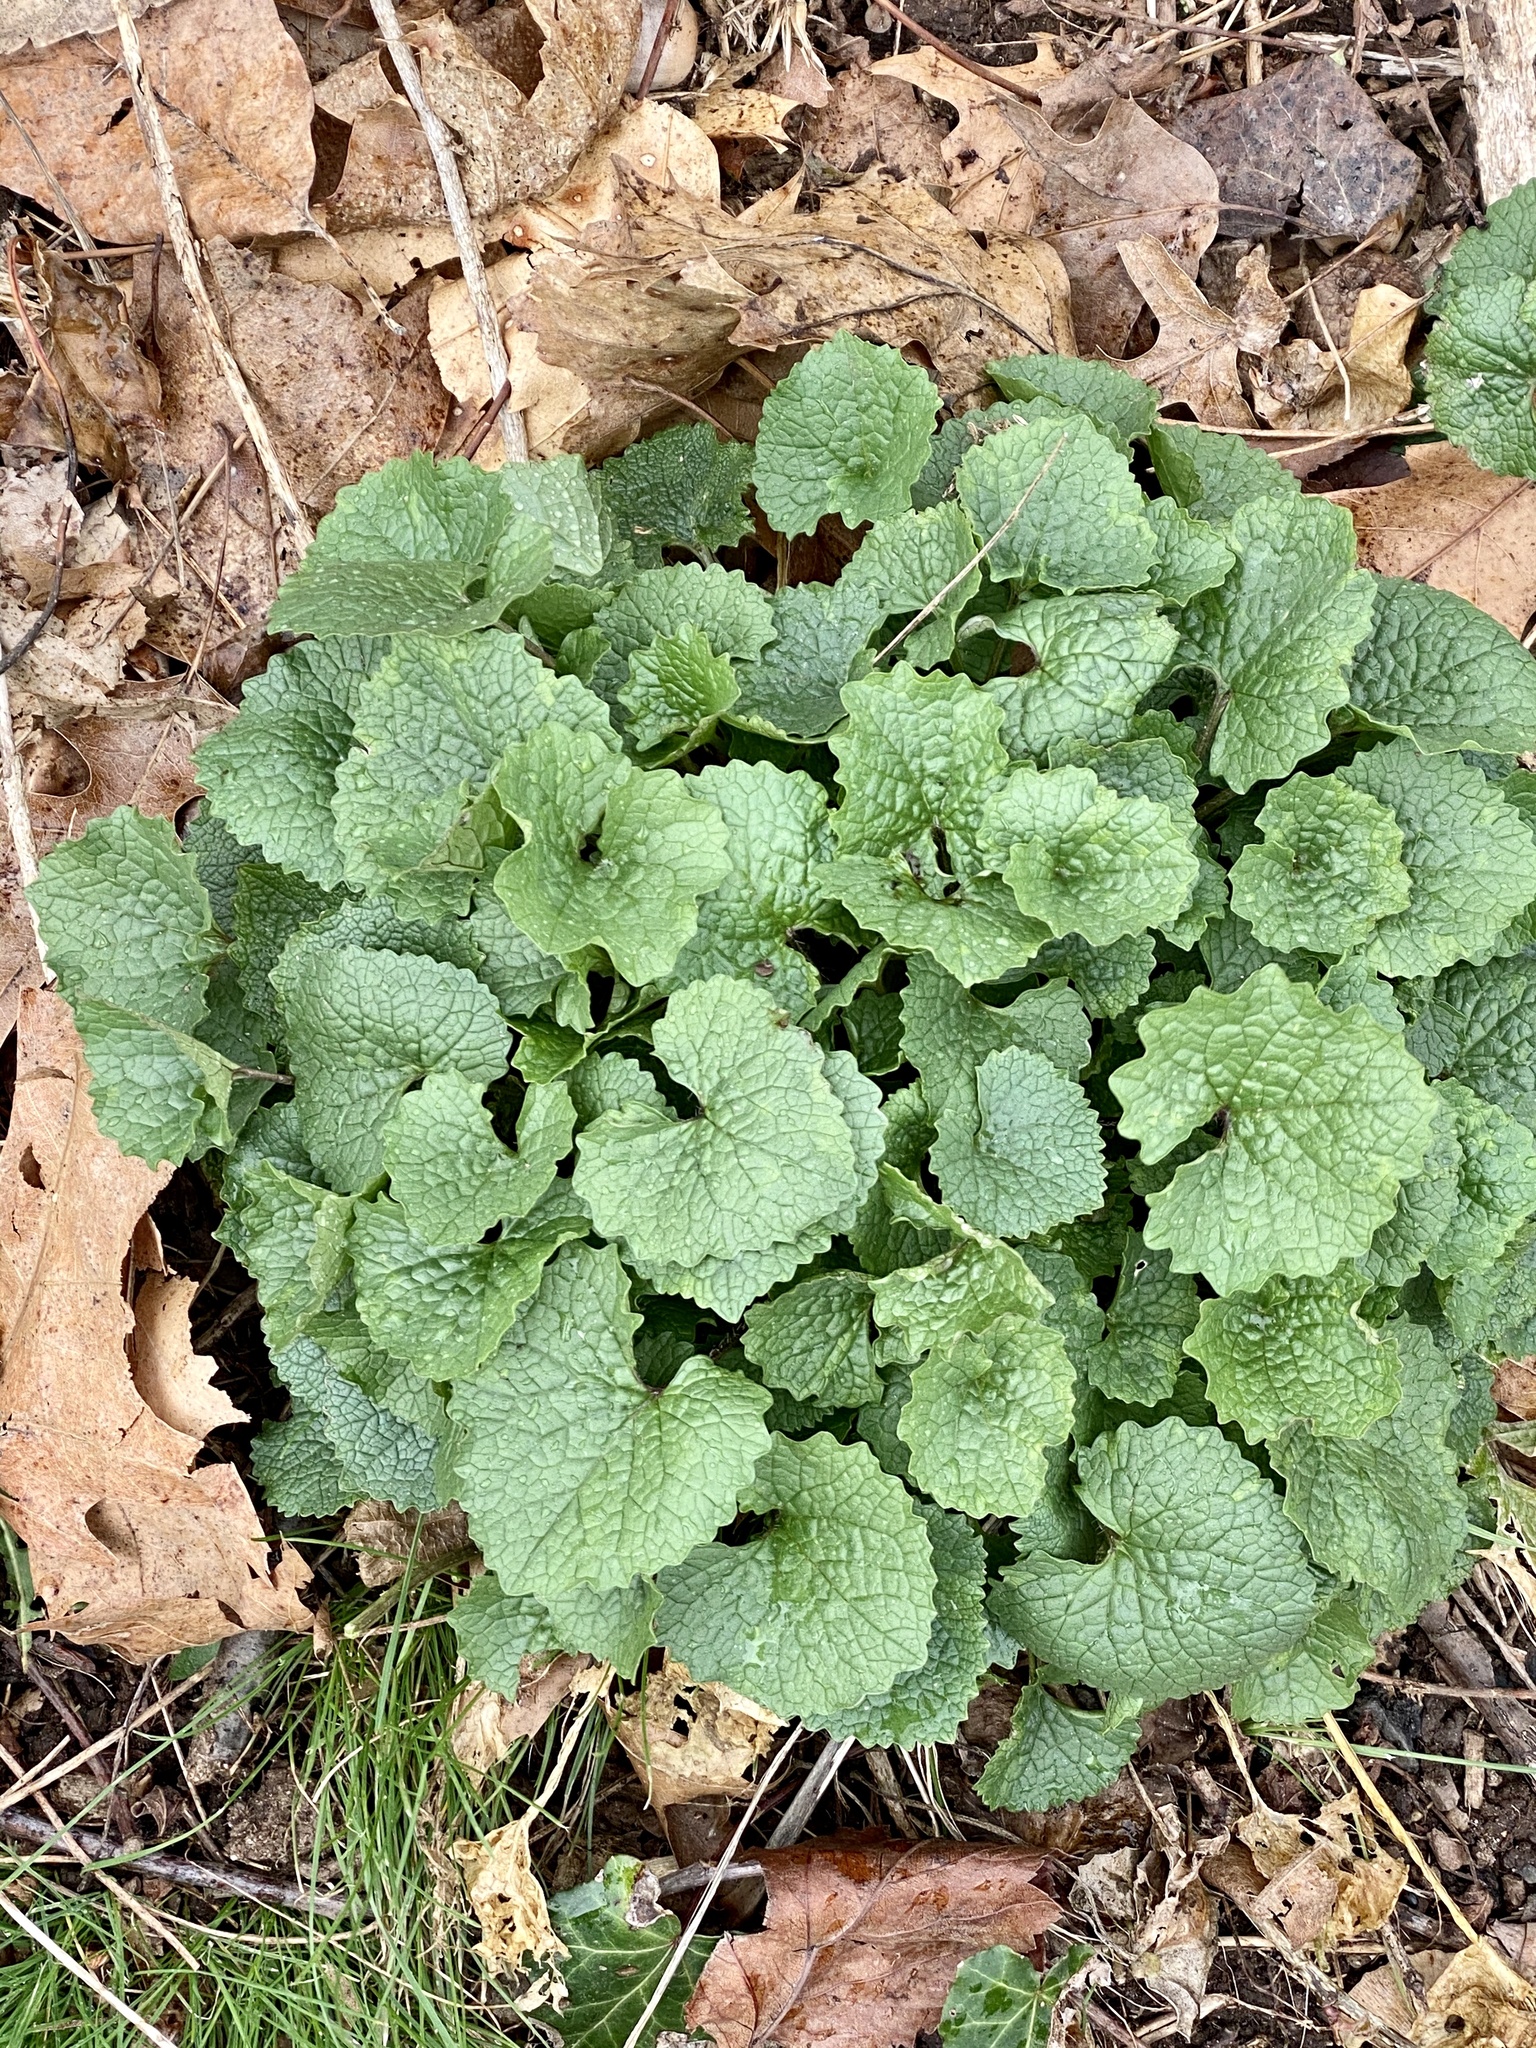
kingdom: Plantae
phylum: Tracheophyta
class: Magnoliopsida
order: Brassicales
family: Brassicaceae
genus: Alliaria
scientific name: Alliaria petiolata
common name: Garlic mustard
